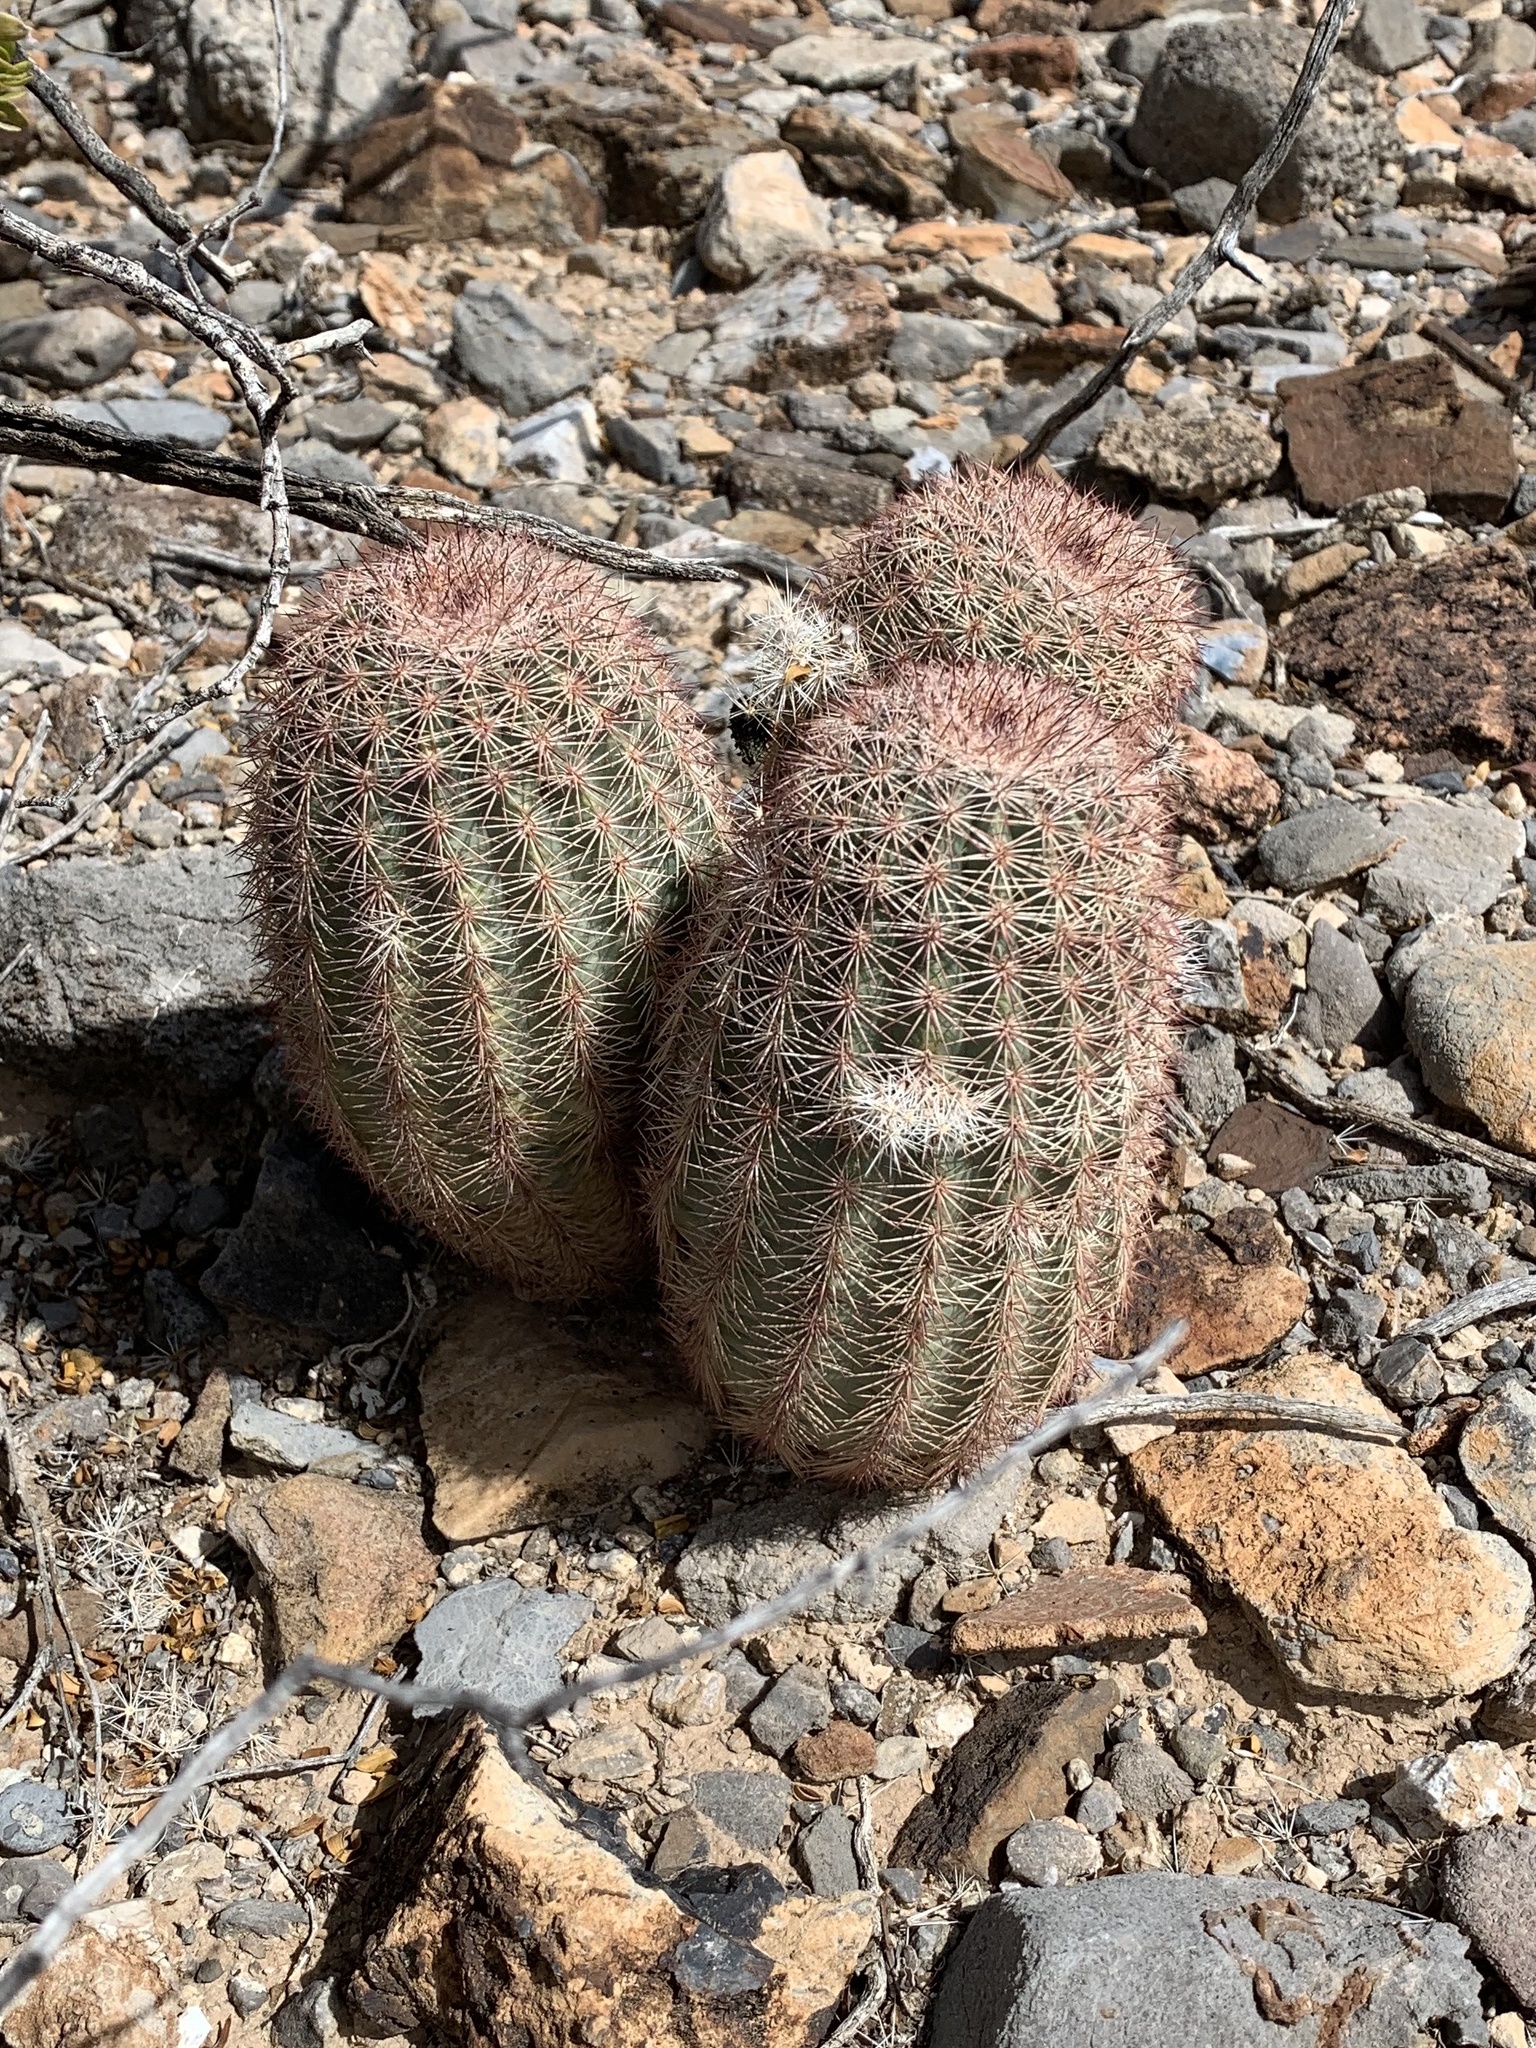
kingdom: Plantae
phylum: Tracheophyta
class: Magnoliopsida
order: Caryophyllales
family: Cactaceae
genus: Echinocereus
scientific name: Echinocereus dasyacanthus
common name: Spiny hedgehog cactus
